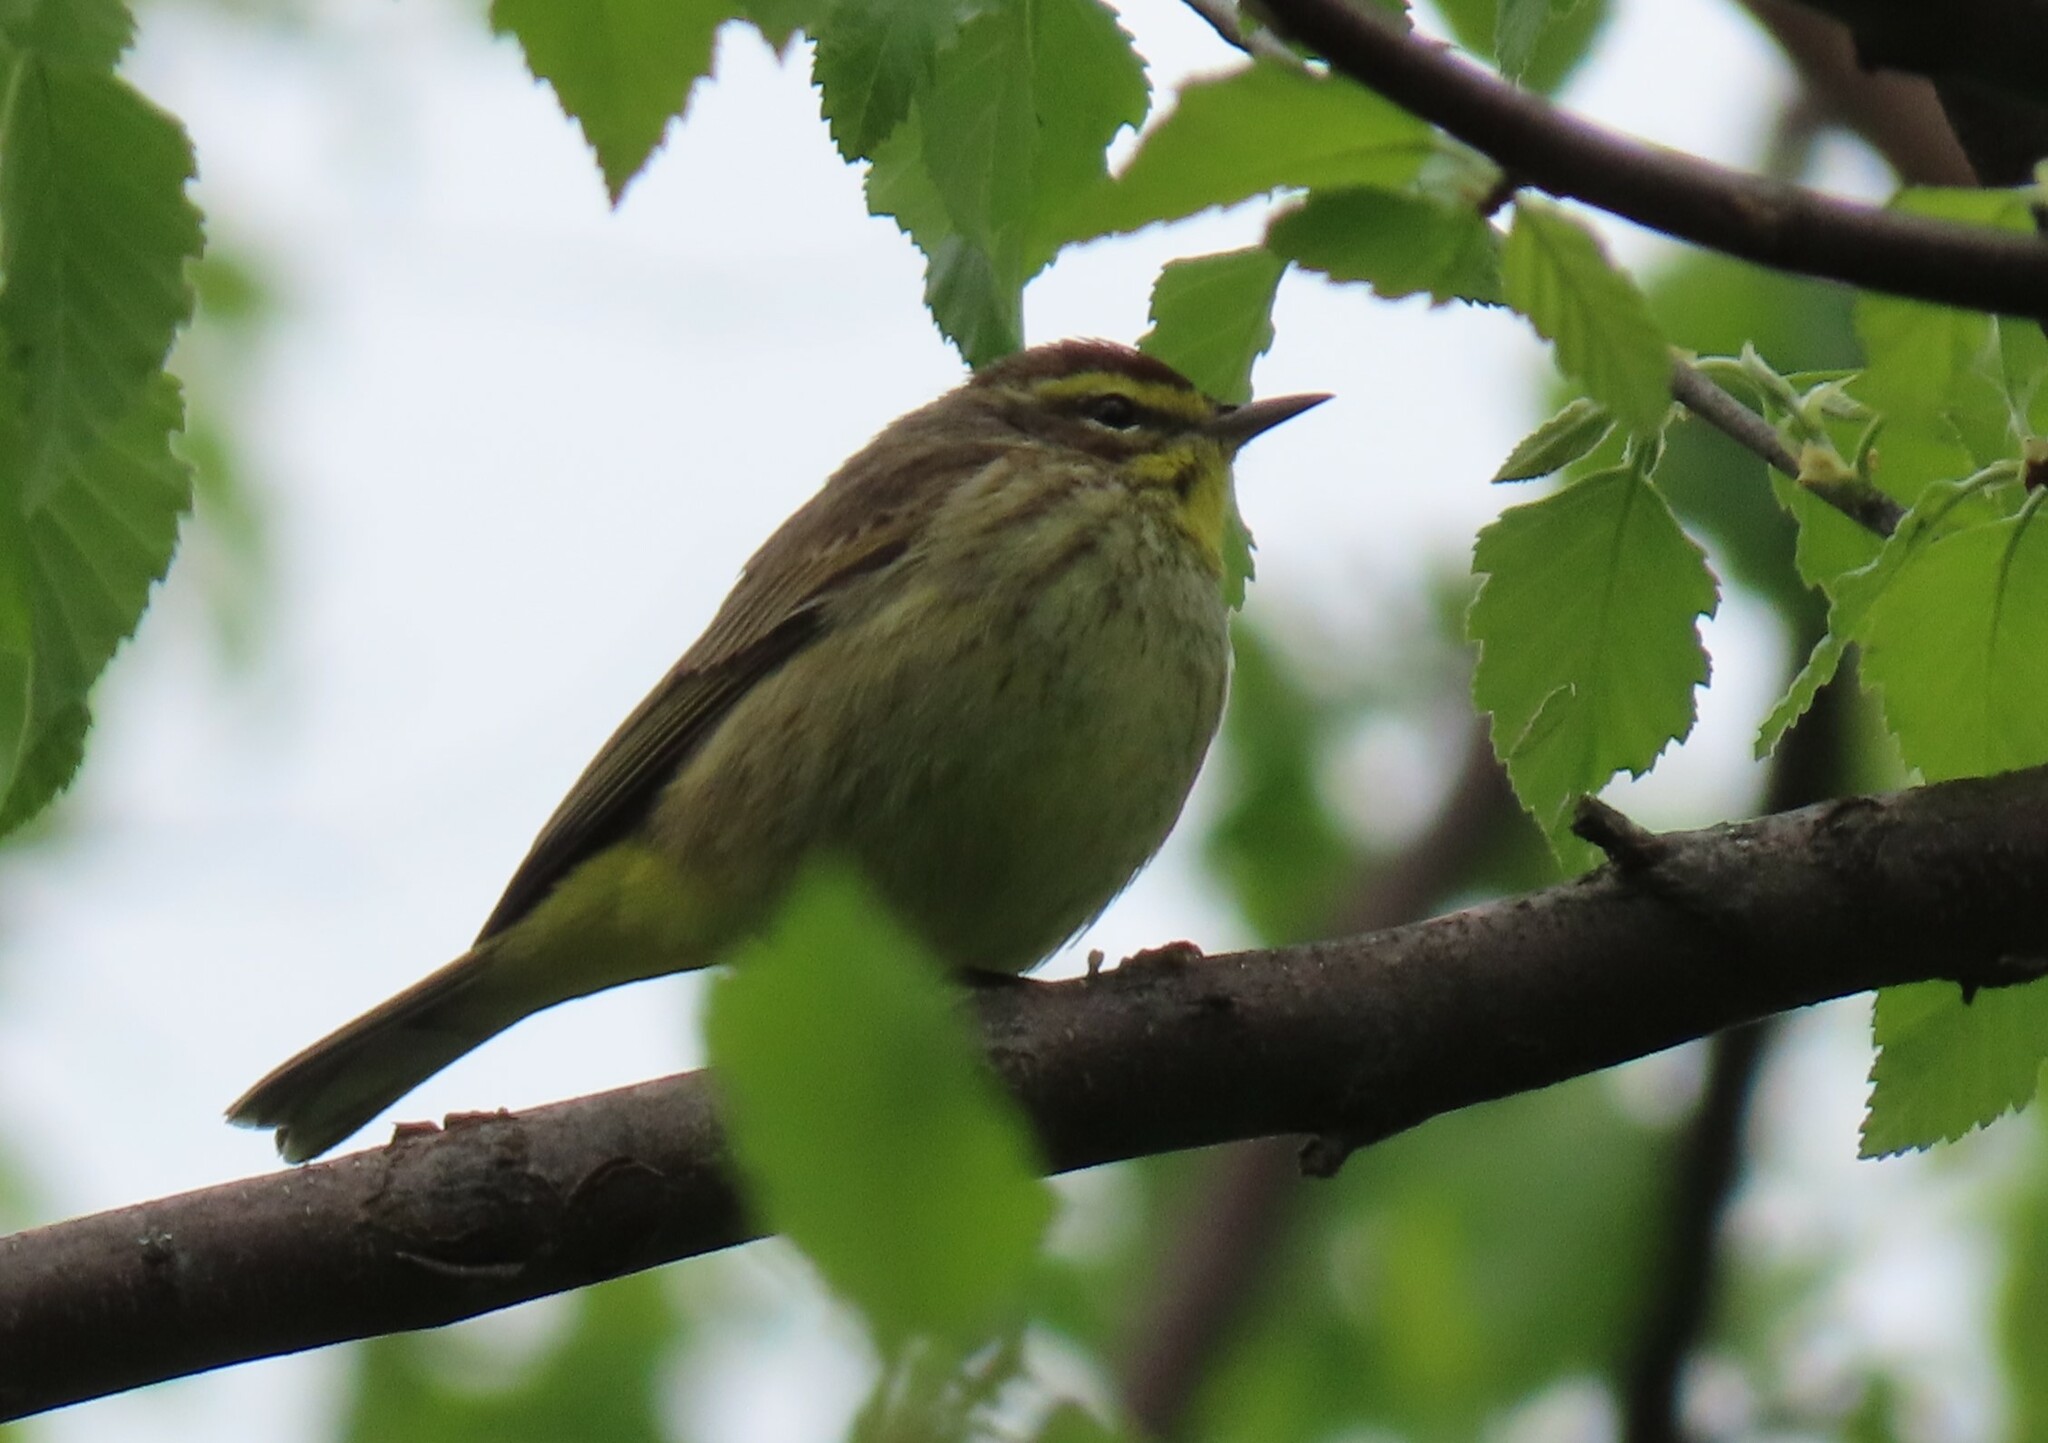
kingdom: Animalia
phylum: Chordata
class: Aves
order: Passeriformes
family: Parulidae
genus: Setophaga
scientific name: Setophaga palmarum
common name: Palm warbler
